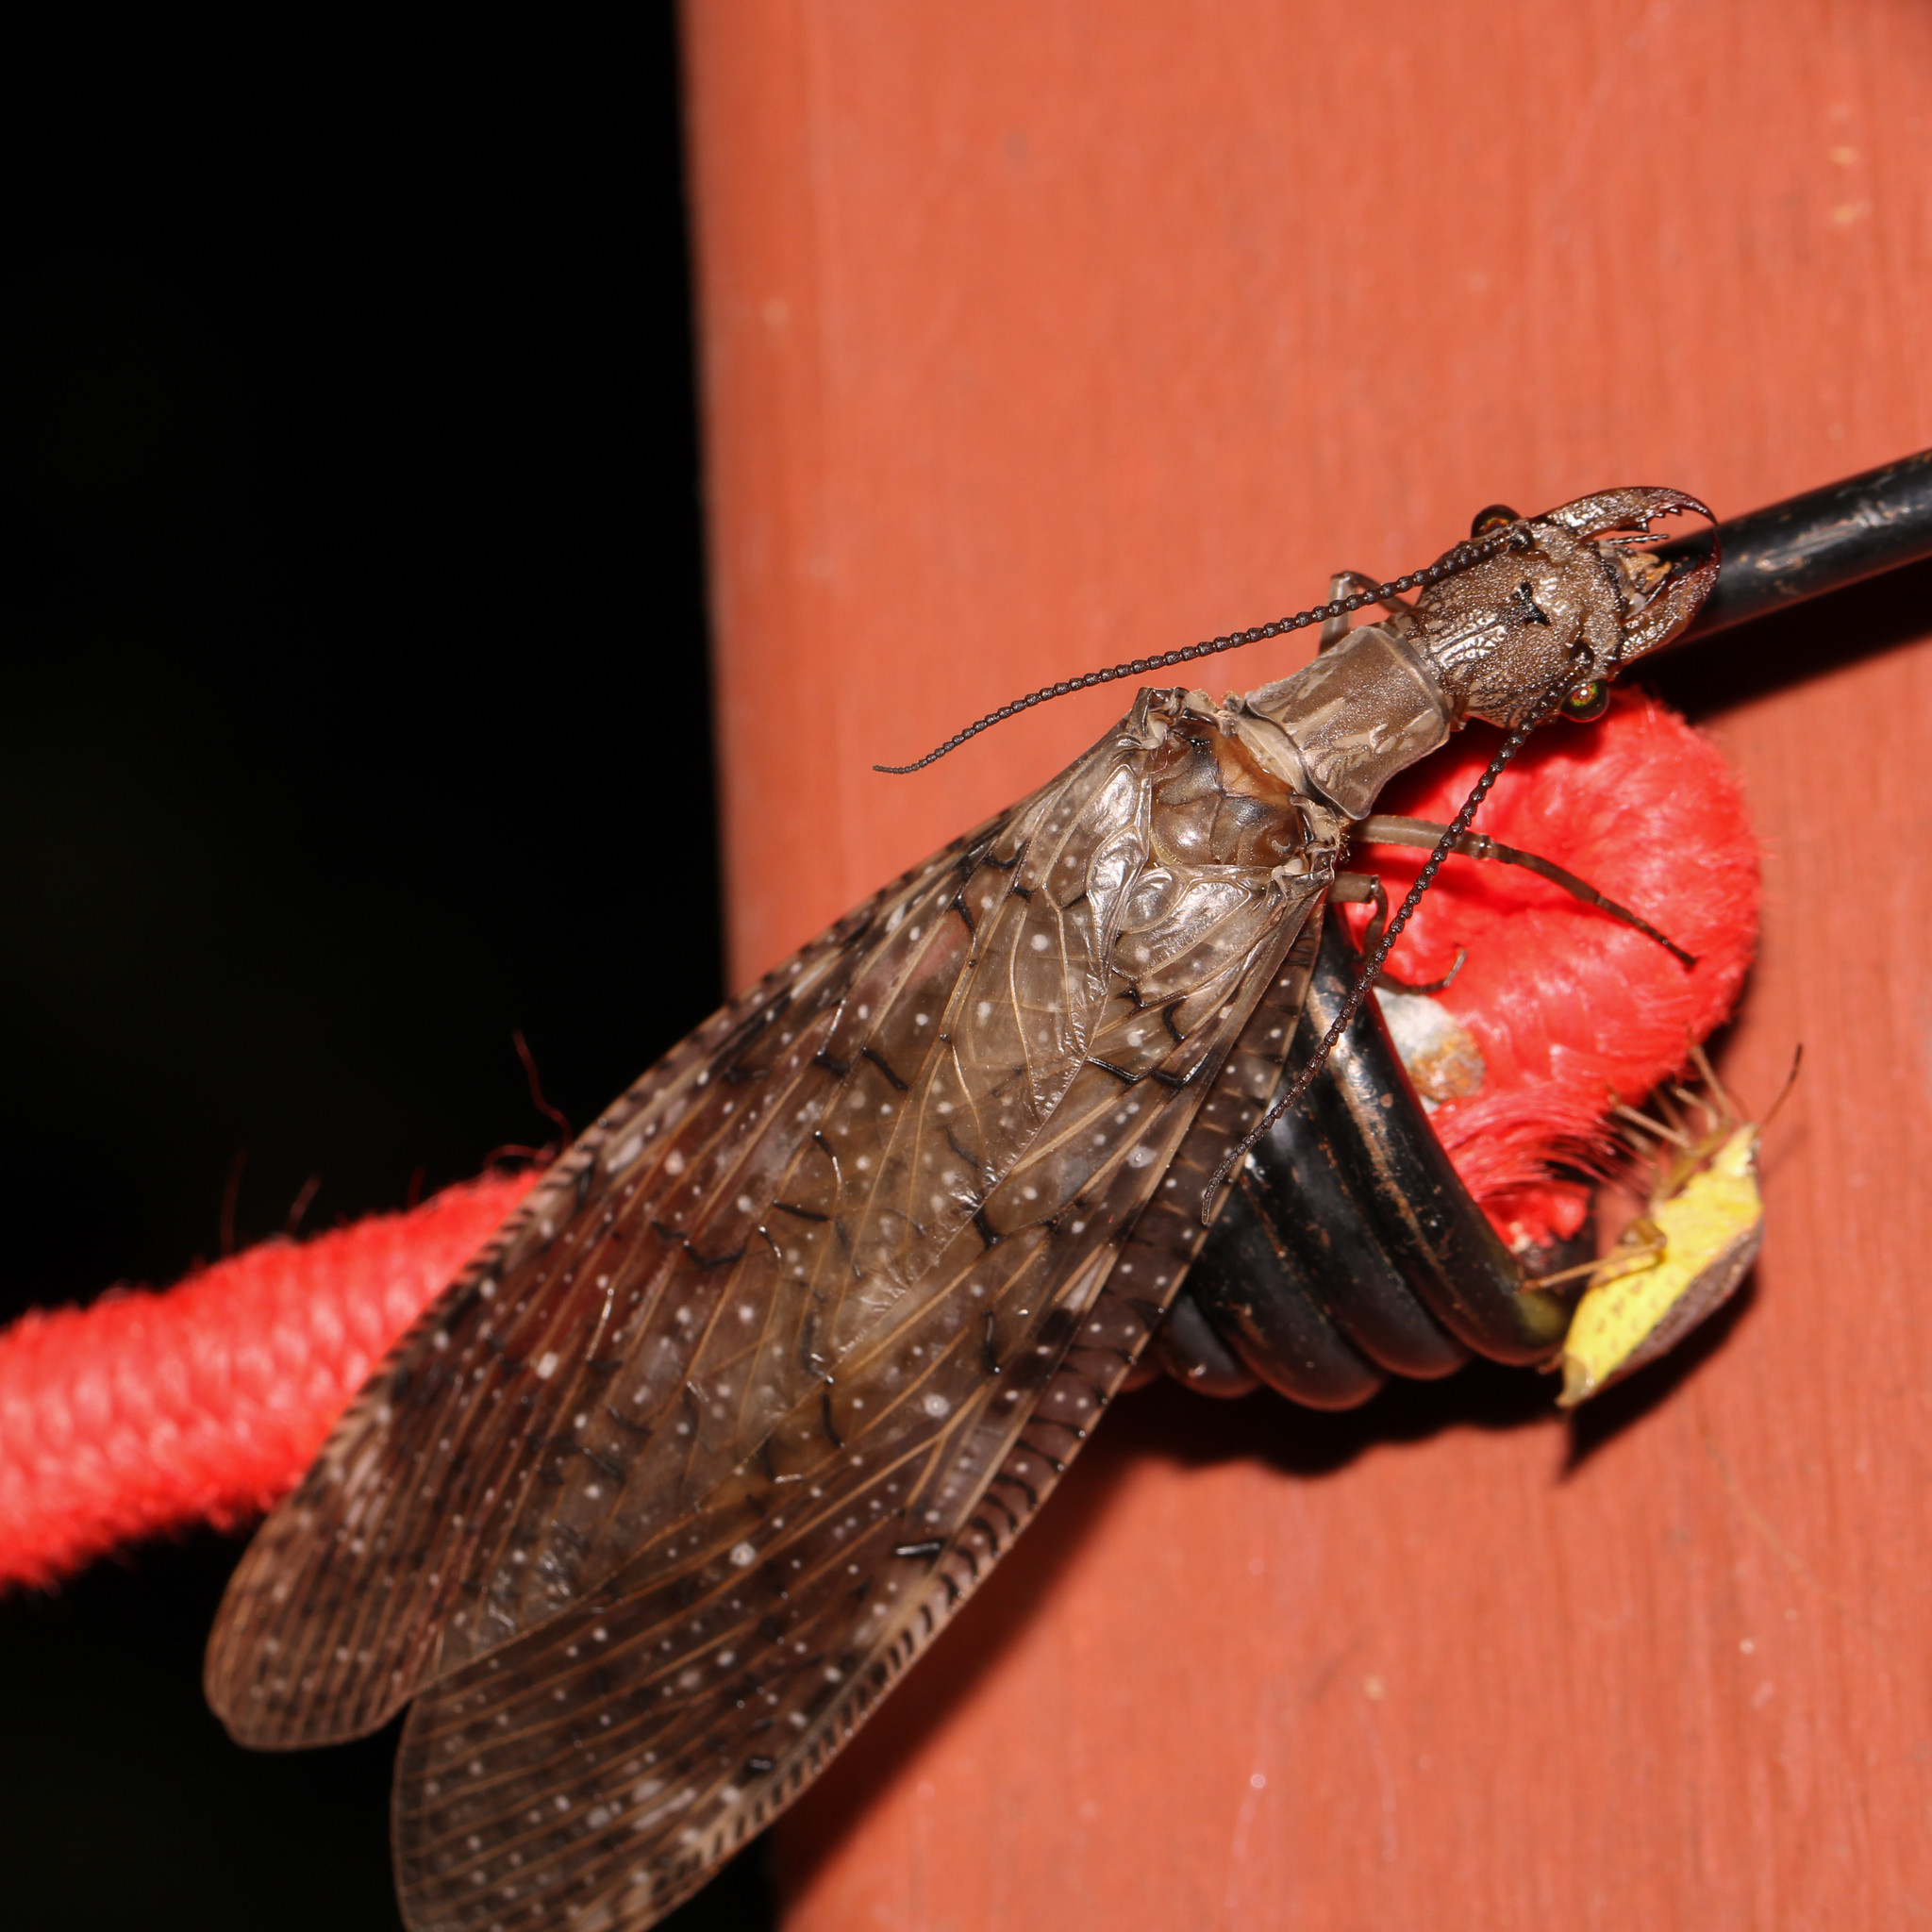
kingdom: Animalia
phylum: Arthropoda
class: Insecta
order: Megaloptera
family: Corydalidae
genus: Corydalus
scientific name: Corydalus cornutus
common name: Dobsonfly
